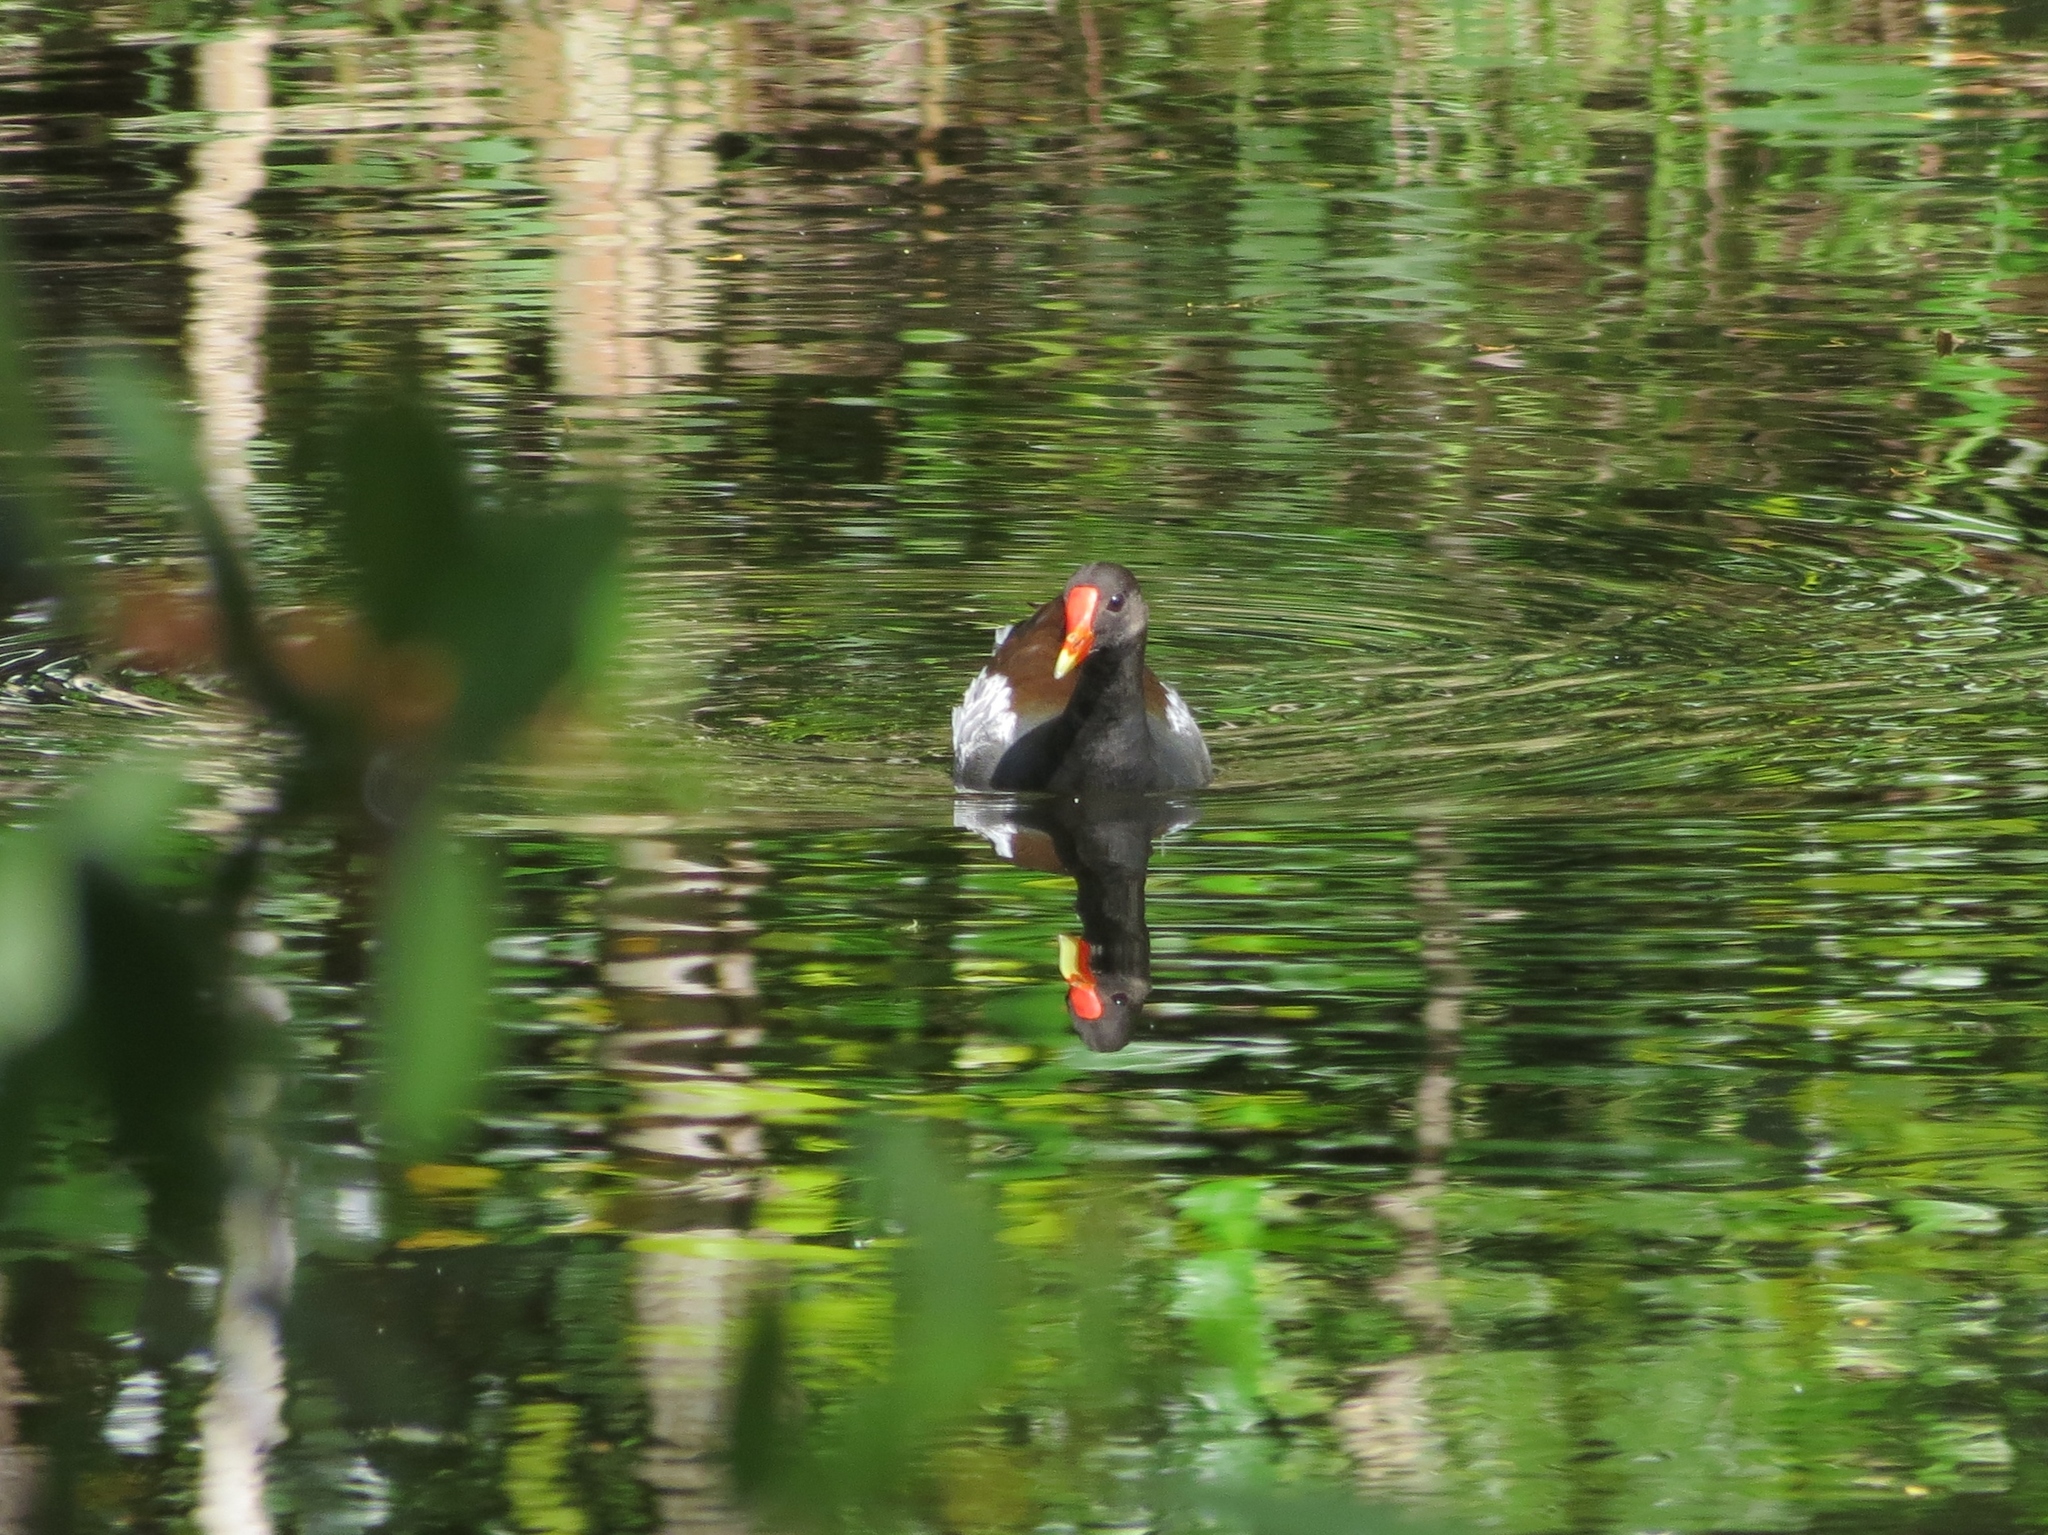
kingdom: Animalia
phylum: Chordata
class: Aves
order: Gruiformes
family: Rallidae
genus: Gallinula
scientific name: Gallinula chloropus
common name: Common moorhen
